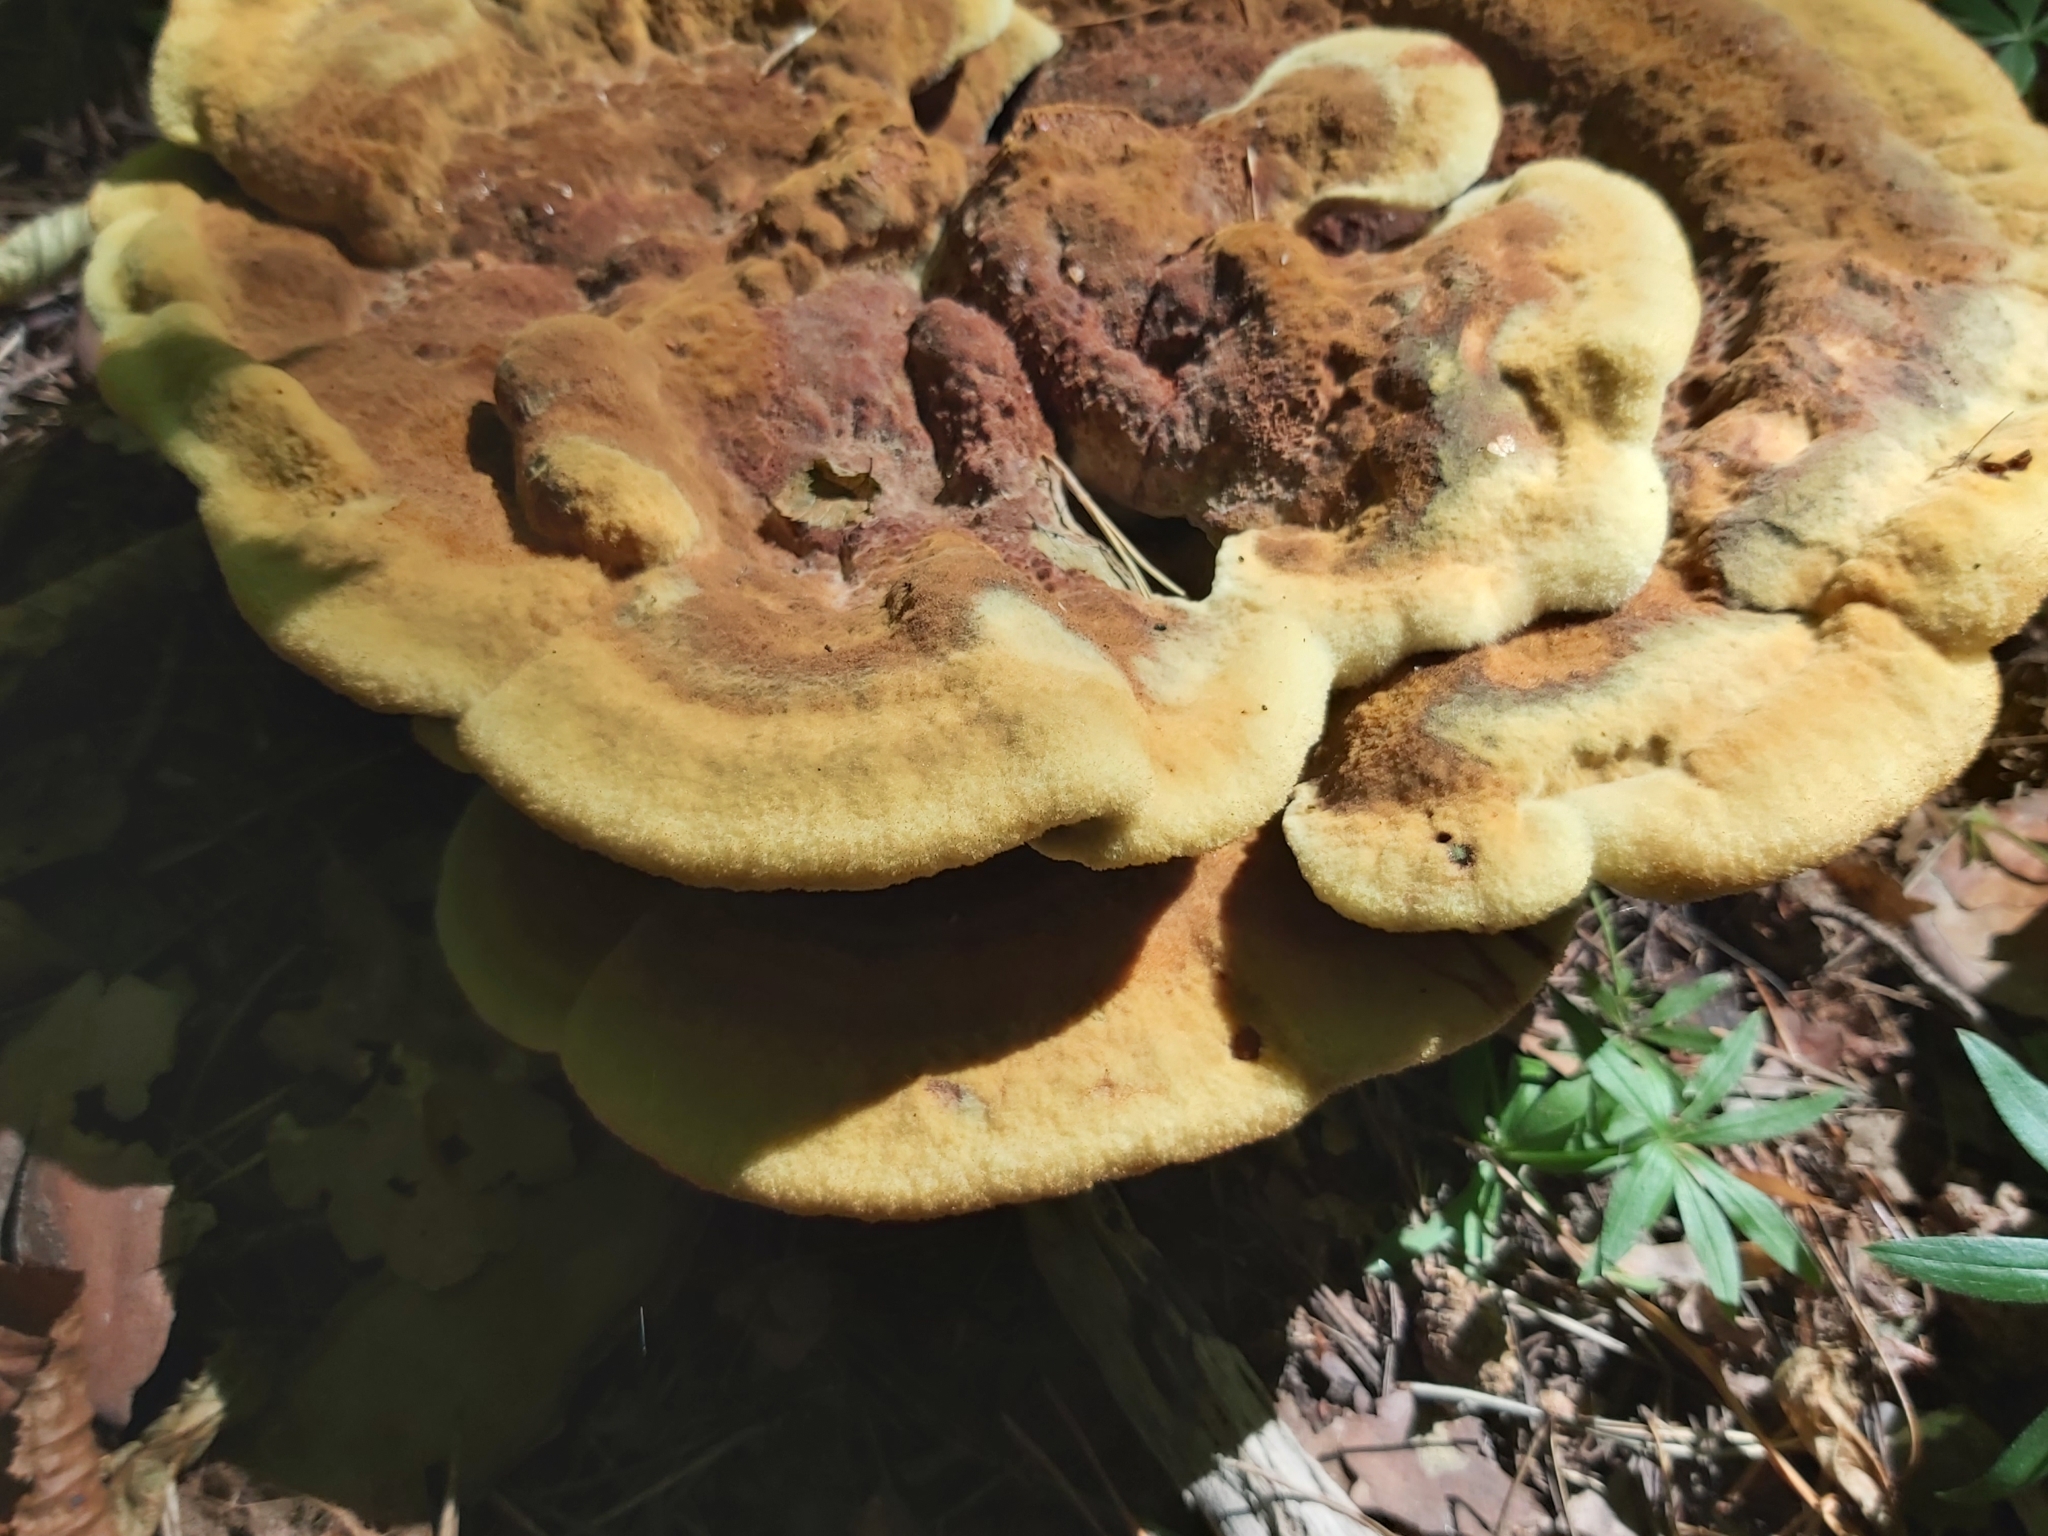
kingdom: Fungi
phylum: Basidiomycota
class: Agaricomycetes
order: Polyporales
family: Laetiporaceae
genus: Phaeolus
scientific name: Phaeolus schweinitzii
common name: Dyer's mazegill
